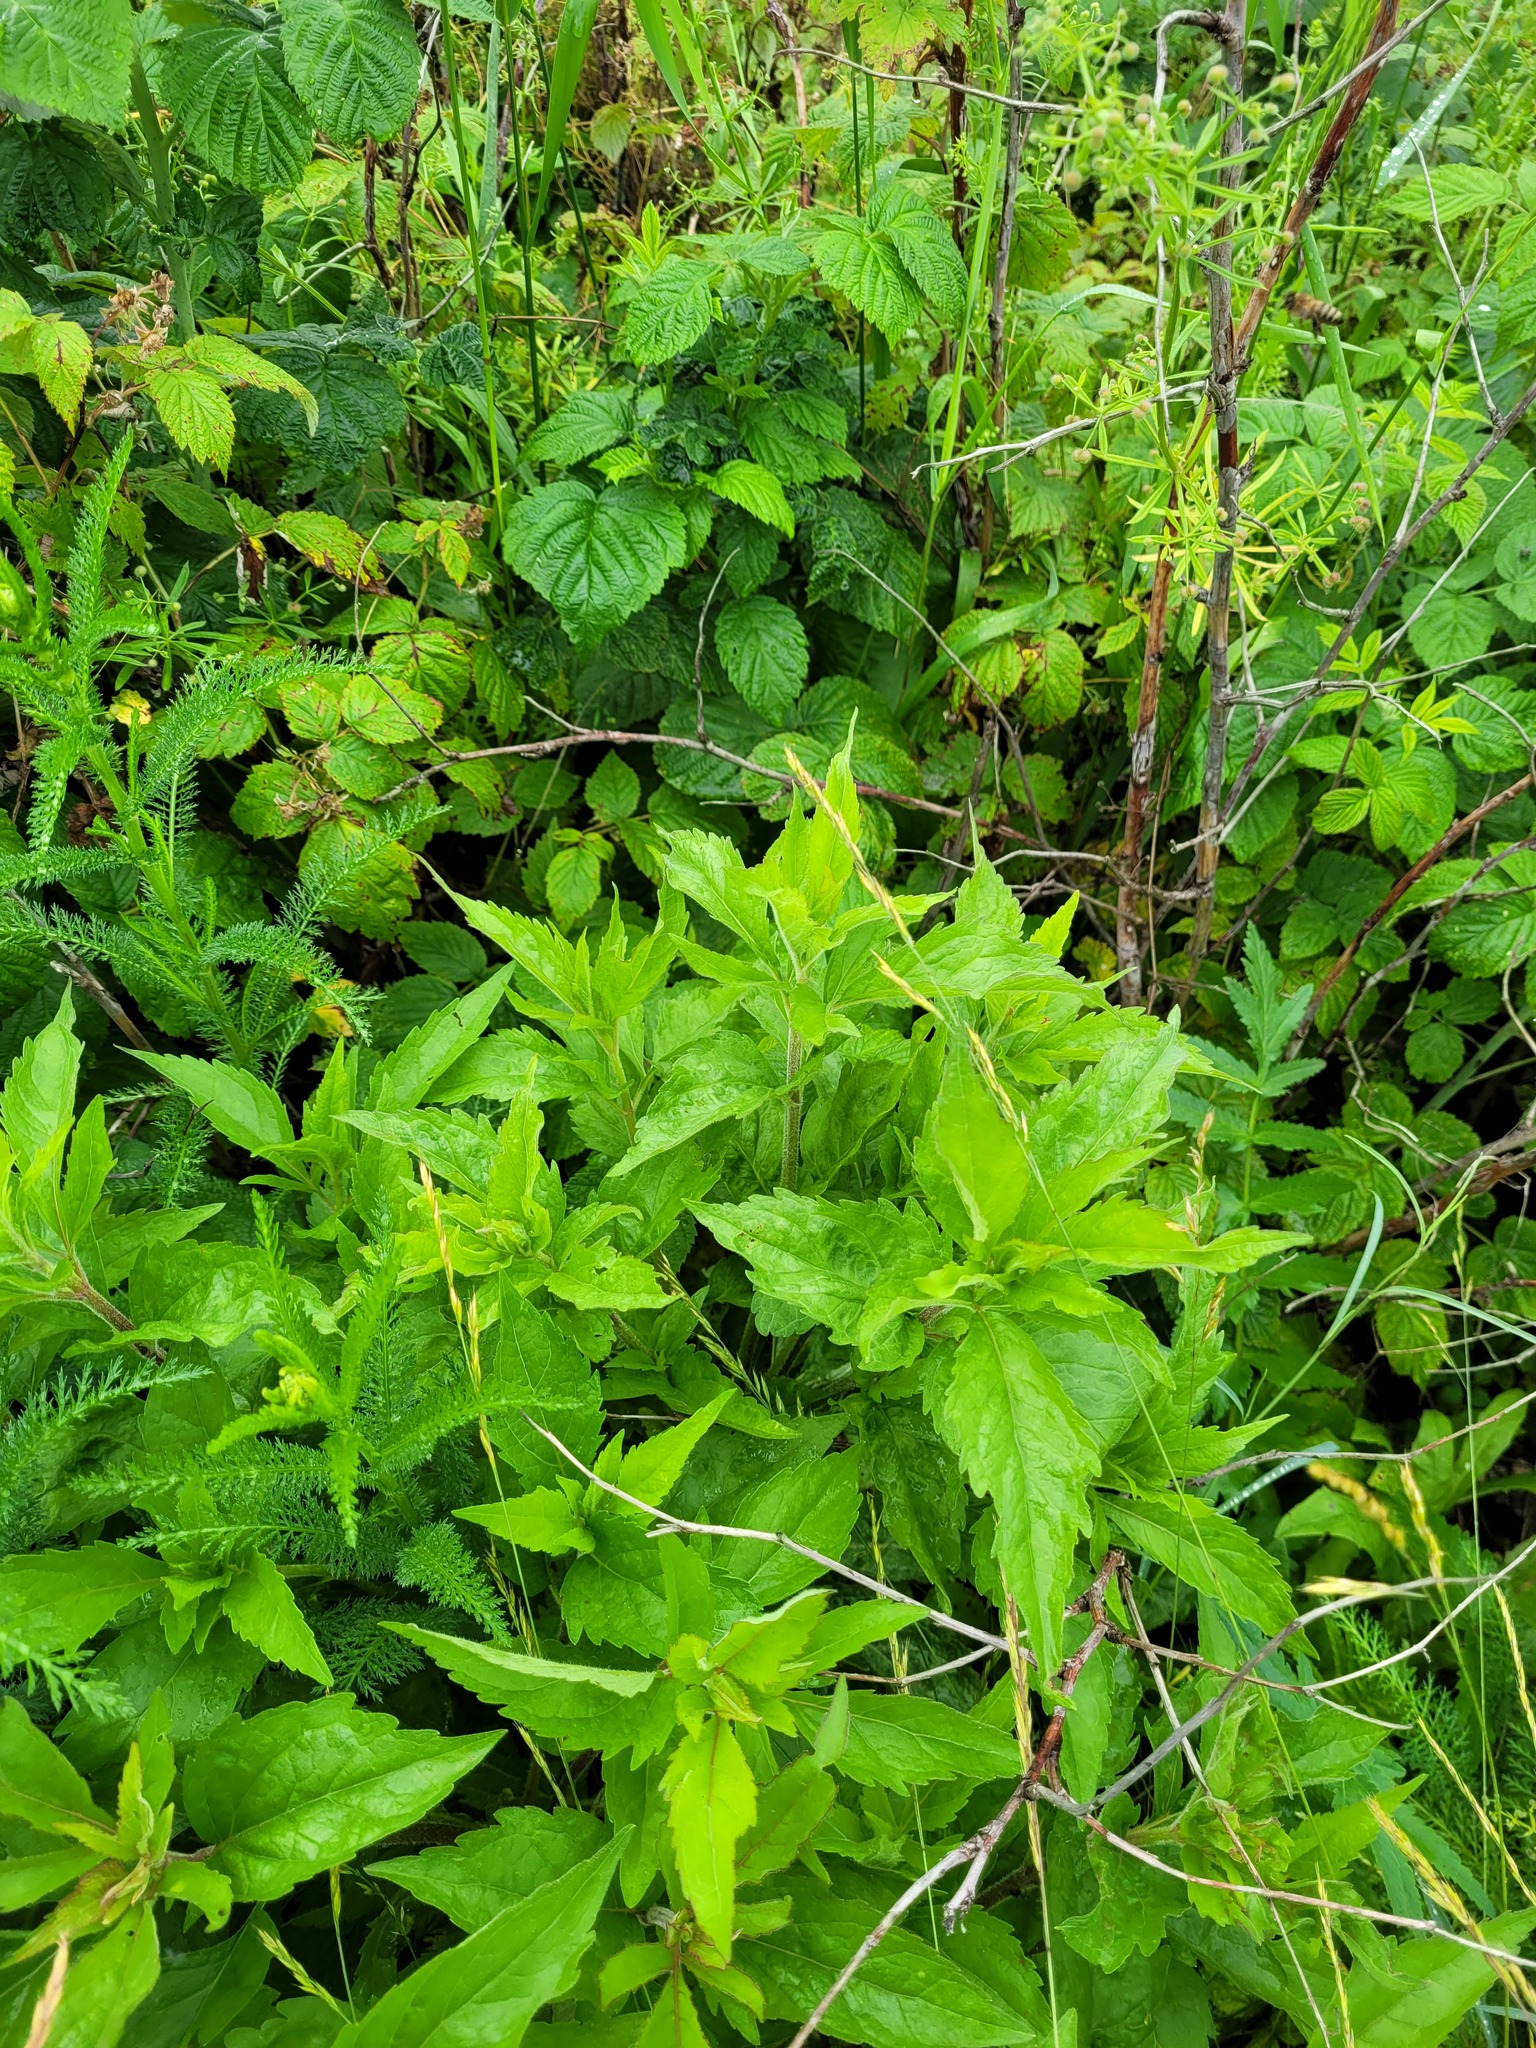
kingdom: Plantae
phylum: Tracheophyta
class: Magnoliopsida
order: Asterales
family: Asteraceae
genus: Eupatorium
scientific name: Eupatorium cannabinum
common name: Hemp-agrimony
